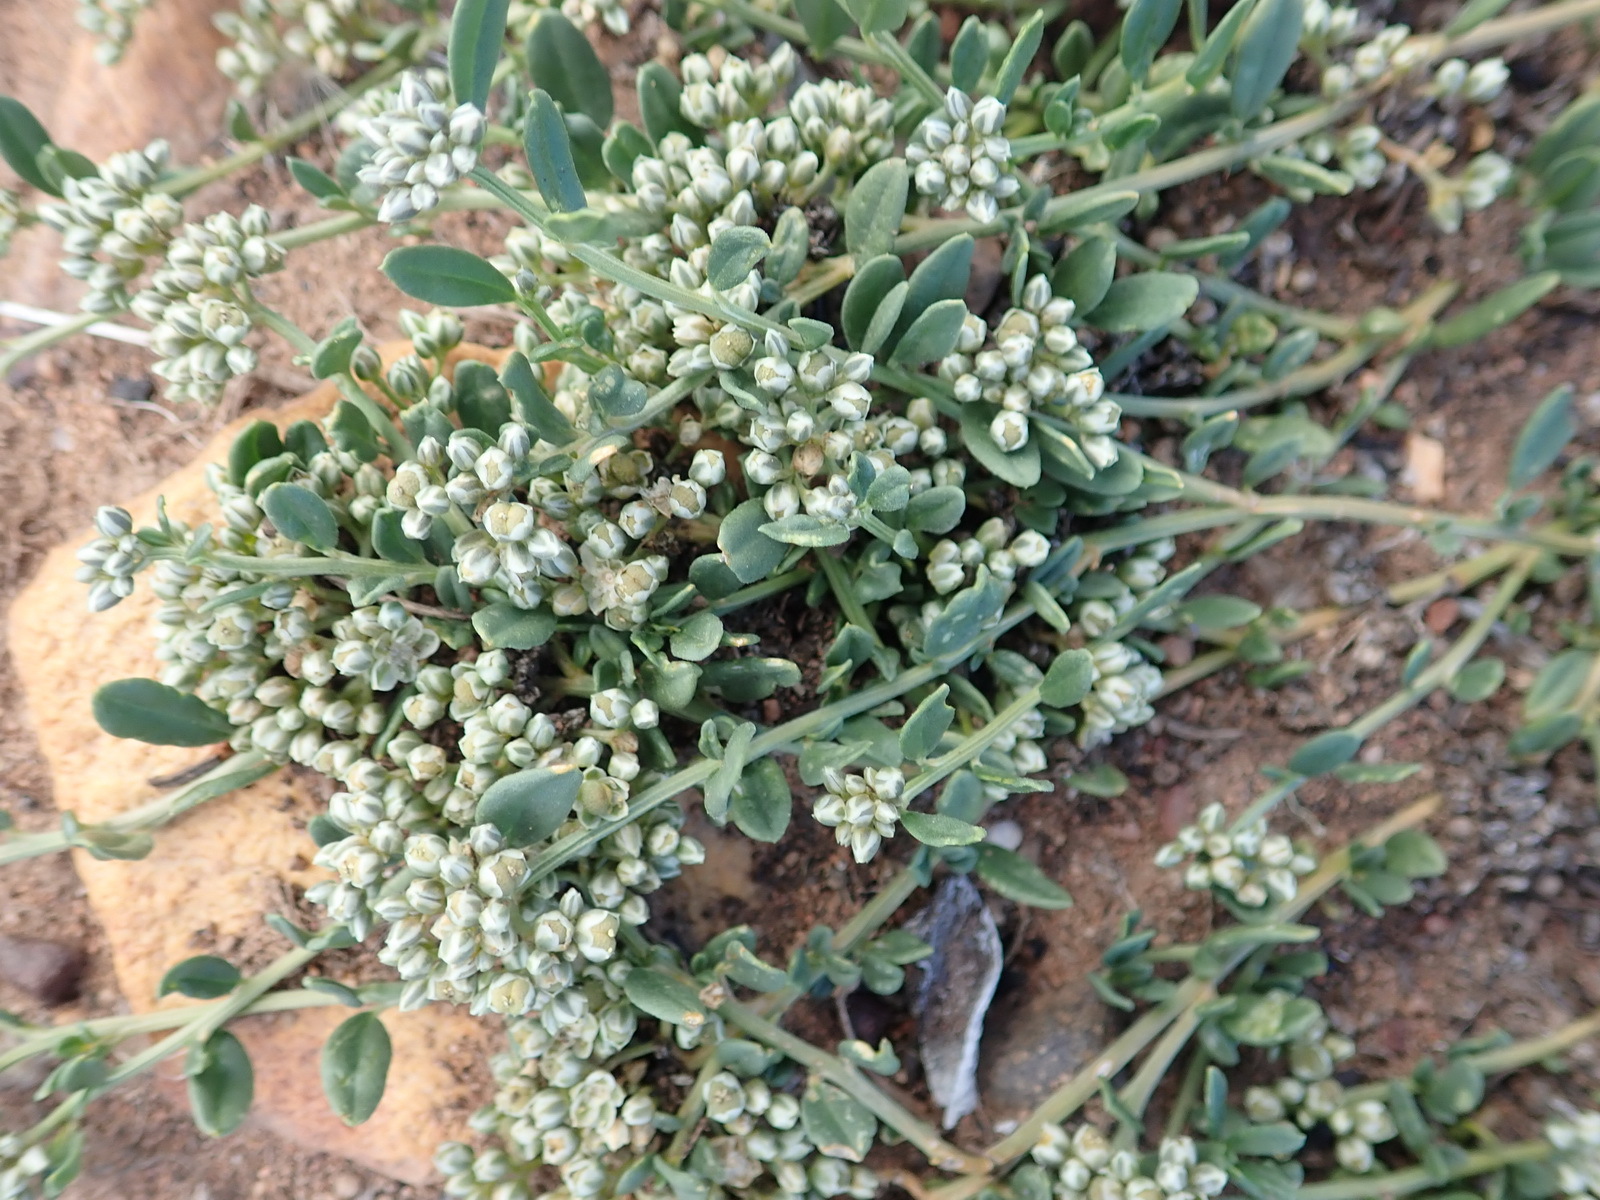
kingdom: Plantae
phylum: Tracheophyta
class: Magnoliopsida
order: Caryophyllales
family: Limeaceae
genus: Limeum
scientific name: Limeum telephioides
